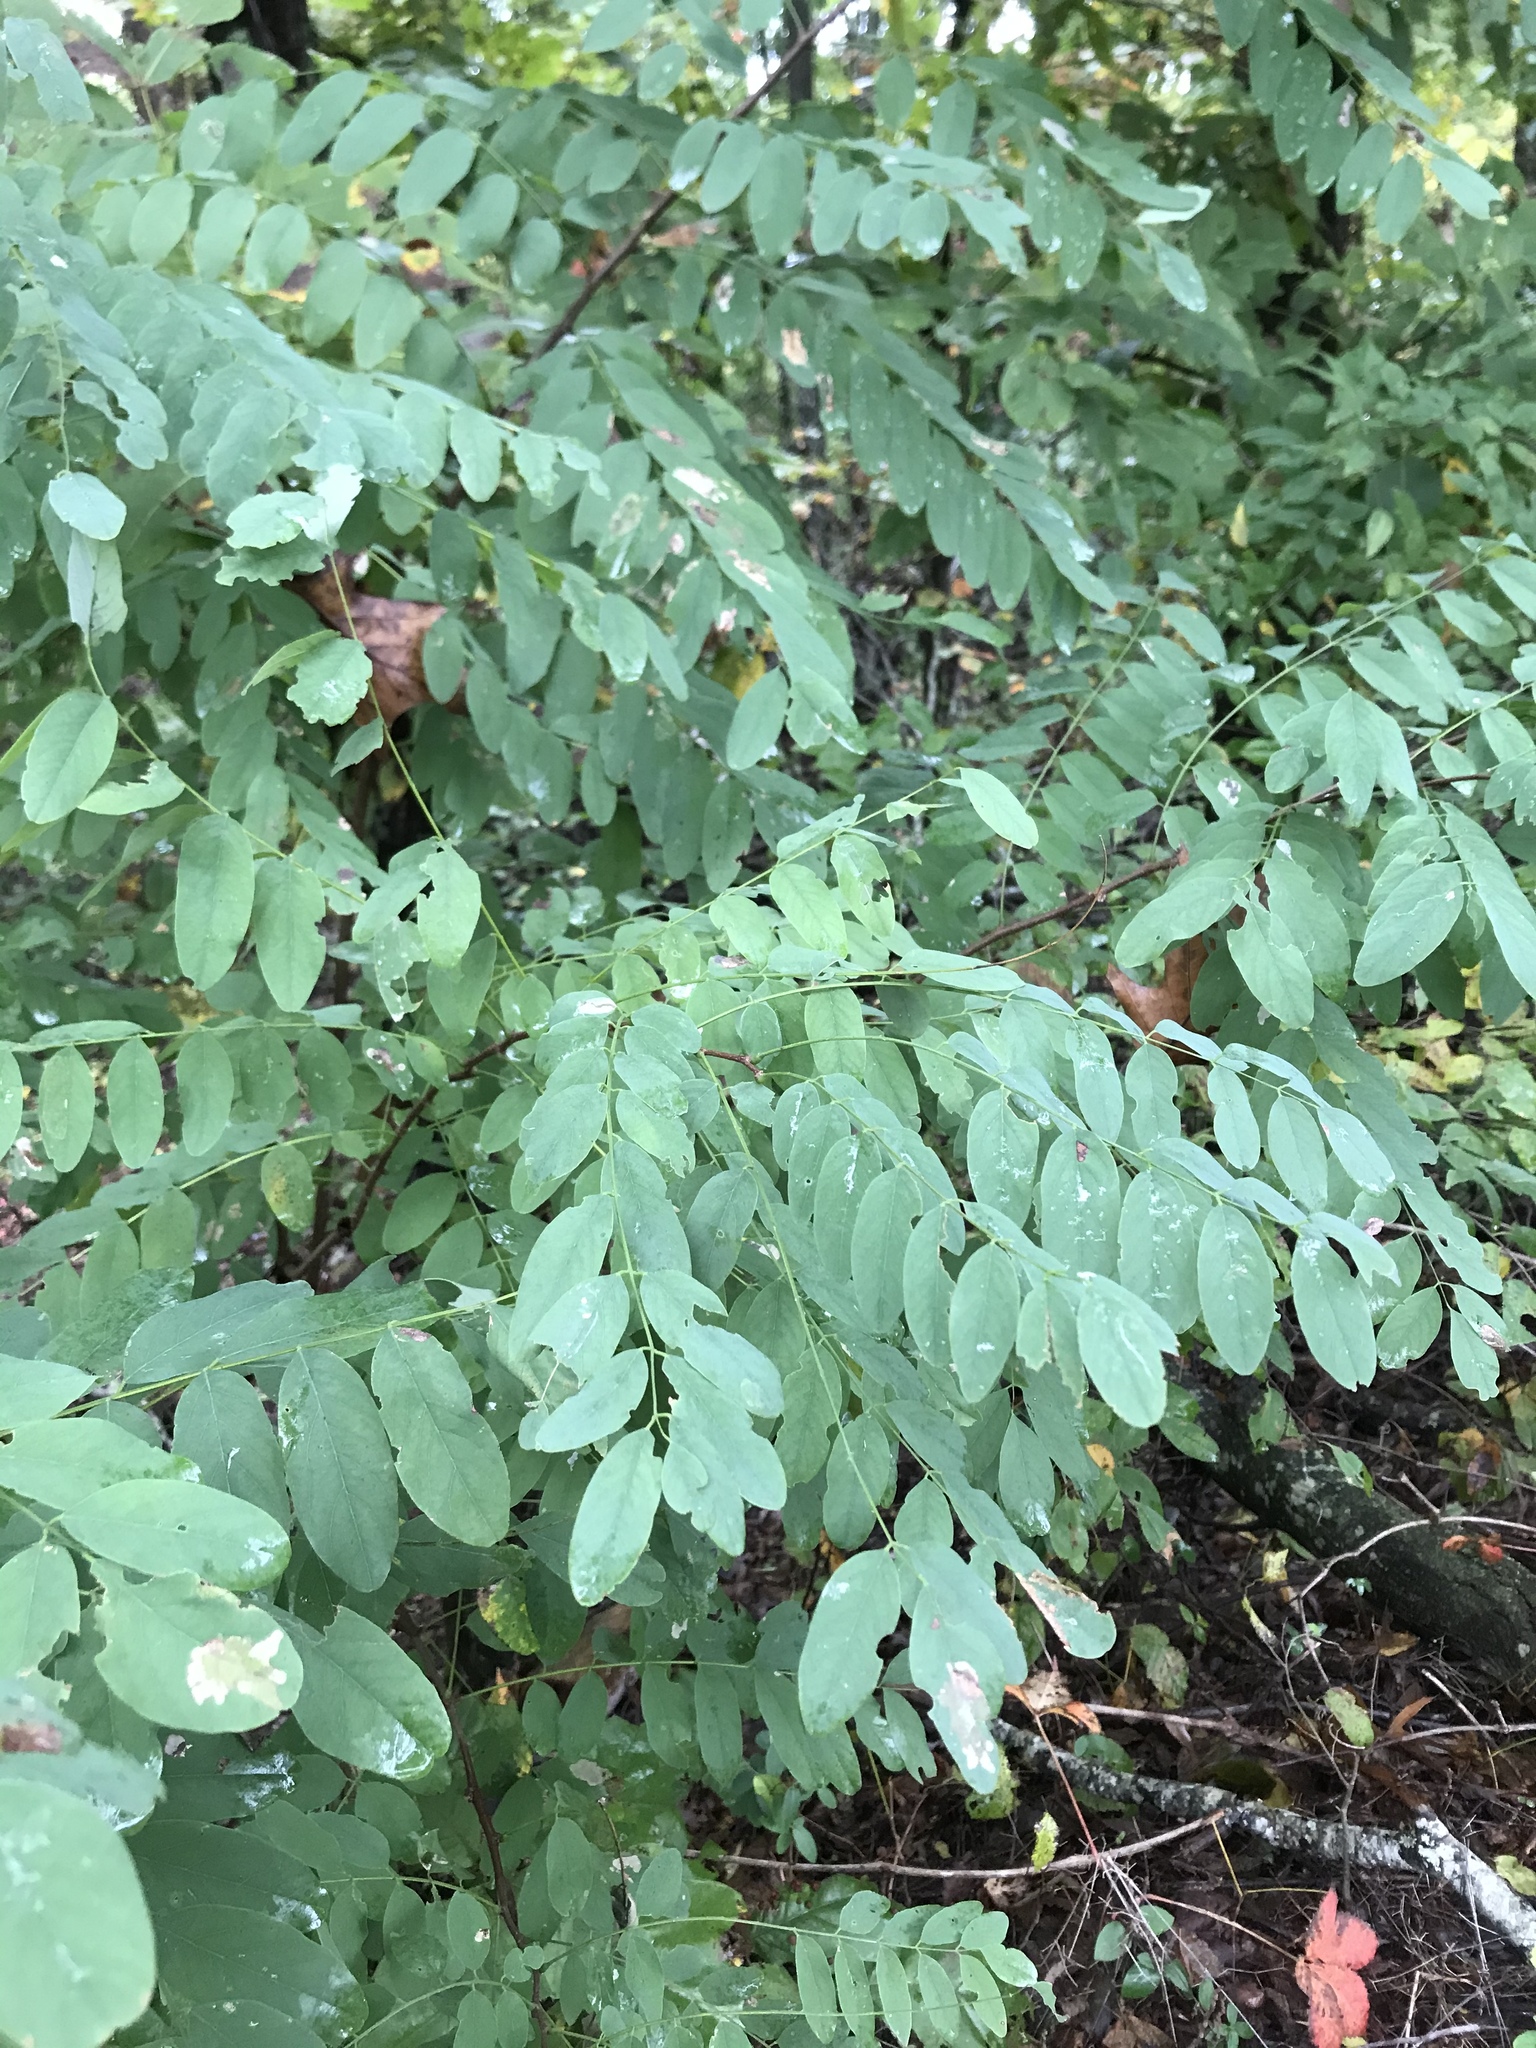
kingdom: Plantae
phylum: Tracheophyta
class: Magnoliopsida
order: Fabales
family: Fabaceae
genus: Robinia
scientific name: Robinia pseudoacacia
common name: Black locust
